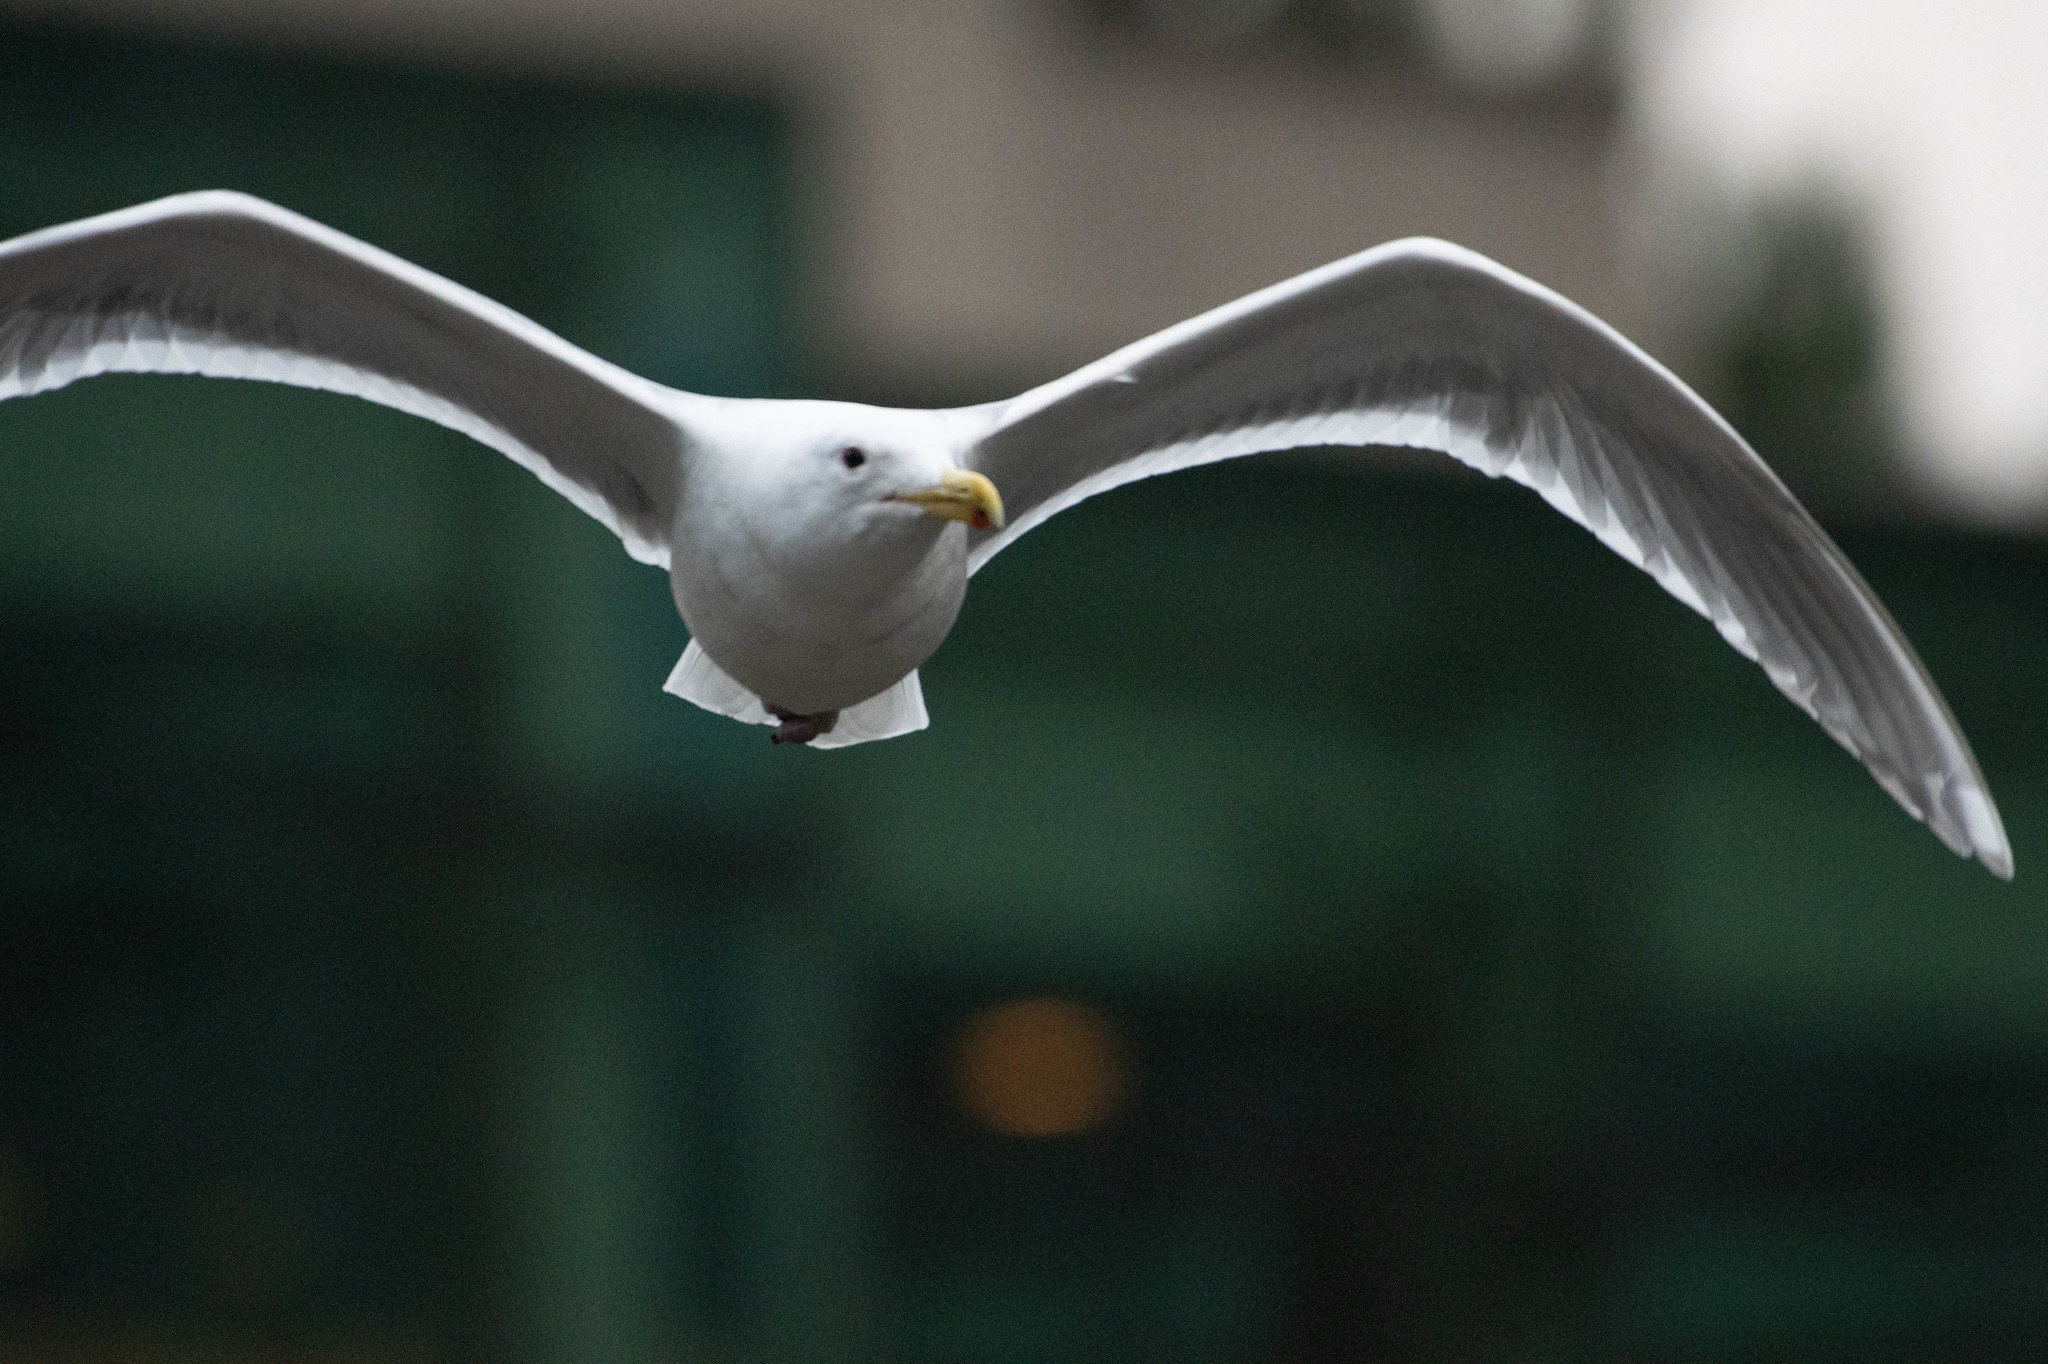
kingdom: Animalia
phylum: Chordata
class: Aves
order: Charadriiformes
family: Laridae
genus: Larus
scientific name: Larus
